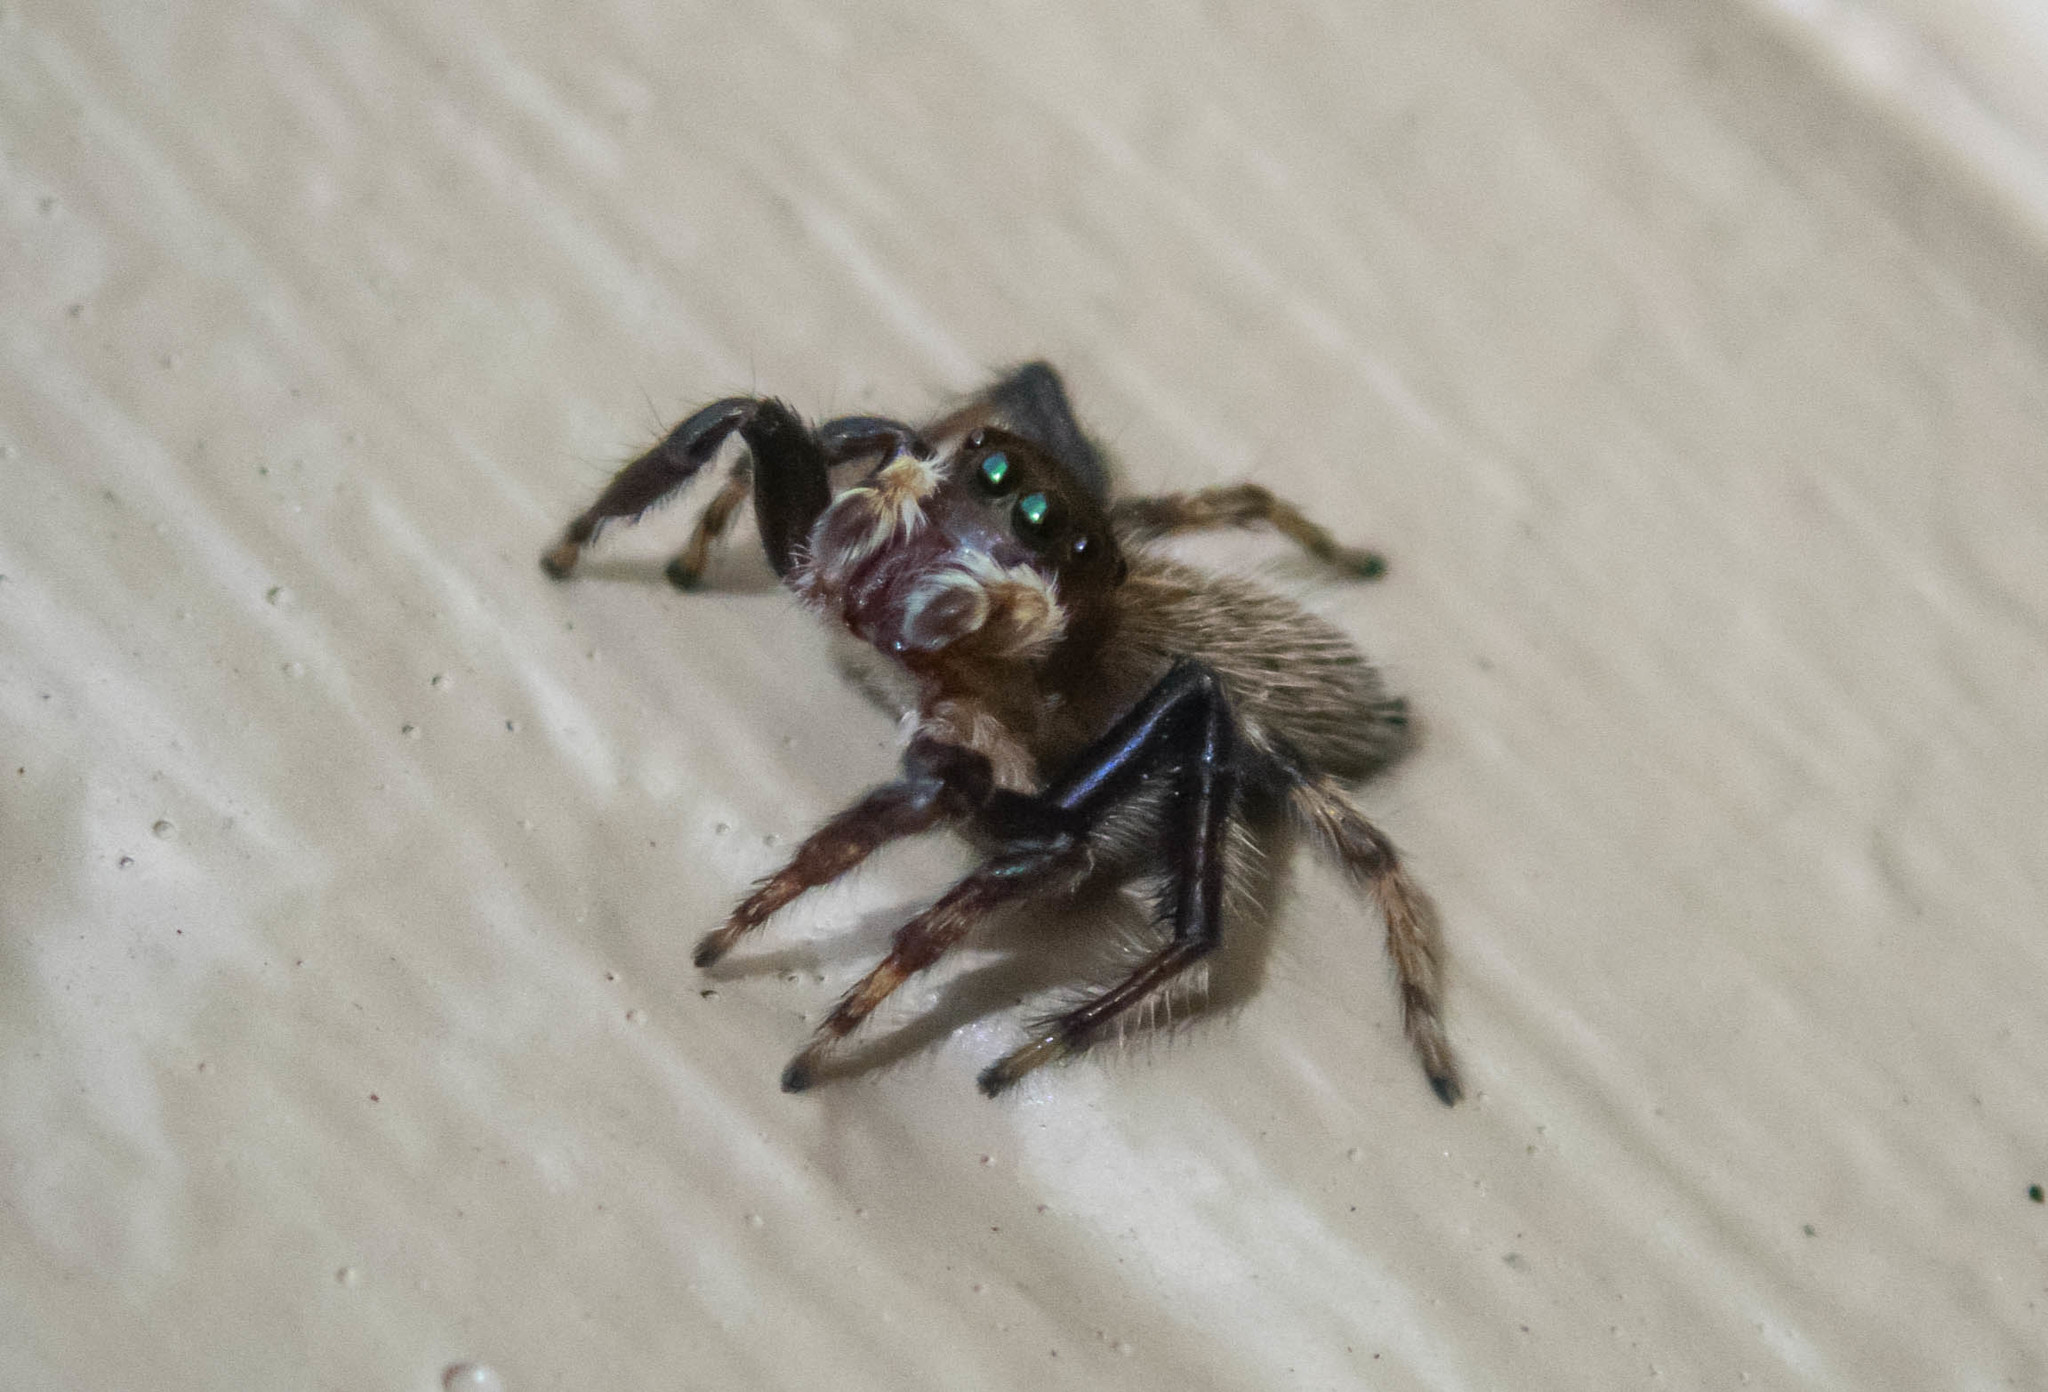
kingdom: Animalia
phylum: Arthropoda
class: Arachnida
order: Araneae
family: Salticidae
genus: Maratus
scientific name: Maratus griseus
